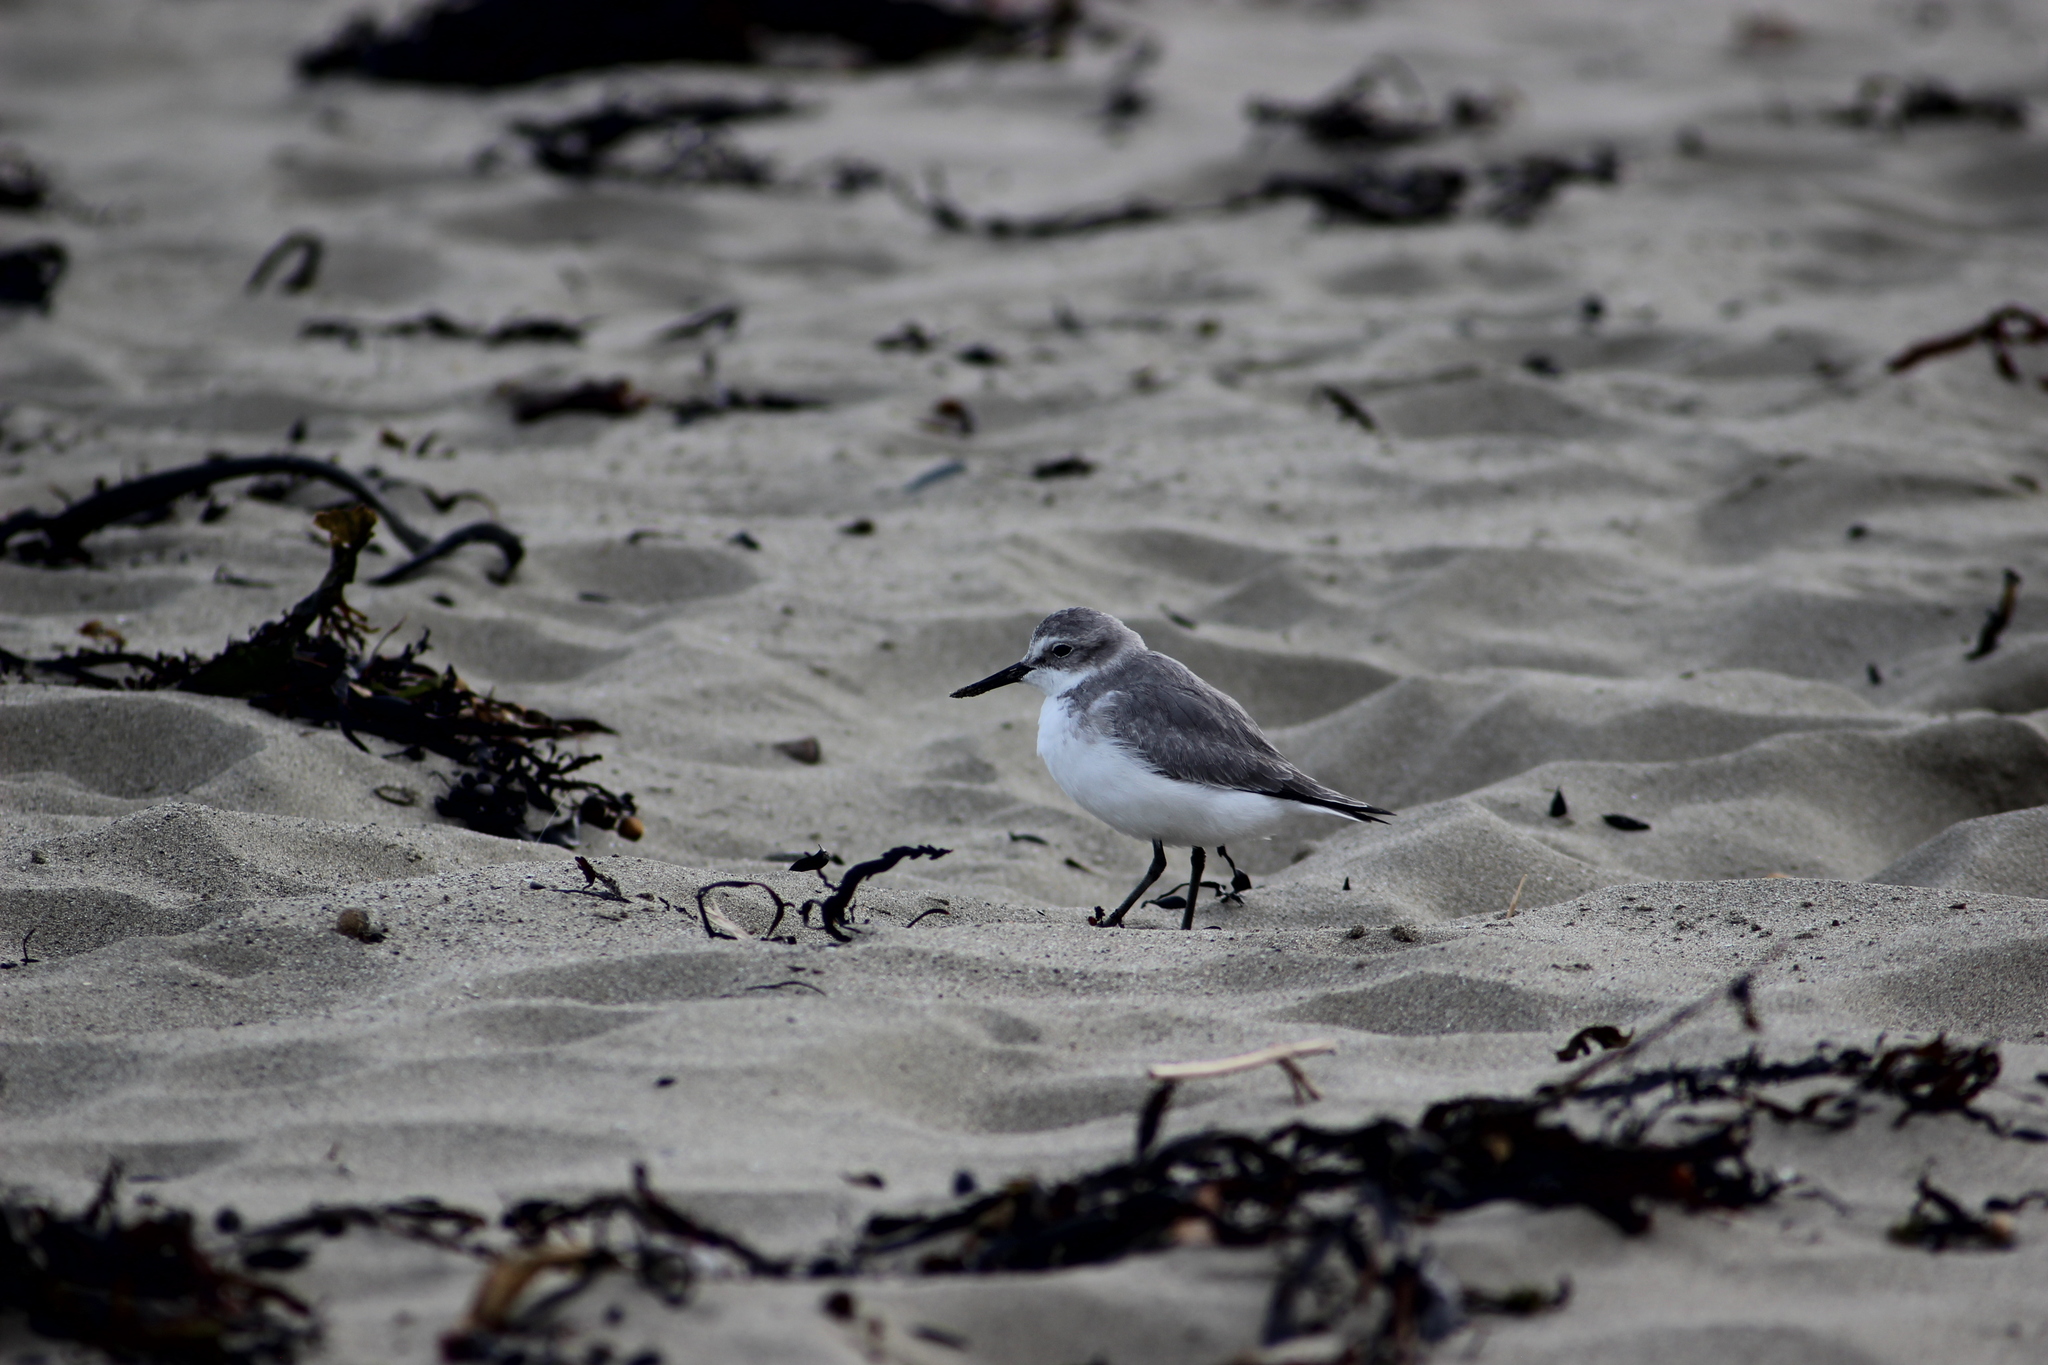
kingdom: Animalia
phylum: Chordata
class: Aves
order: Charadriiformes
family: Charadriidae
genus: Anarhynchus
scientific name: Anarhynchus frontalis
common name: Wrybill
